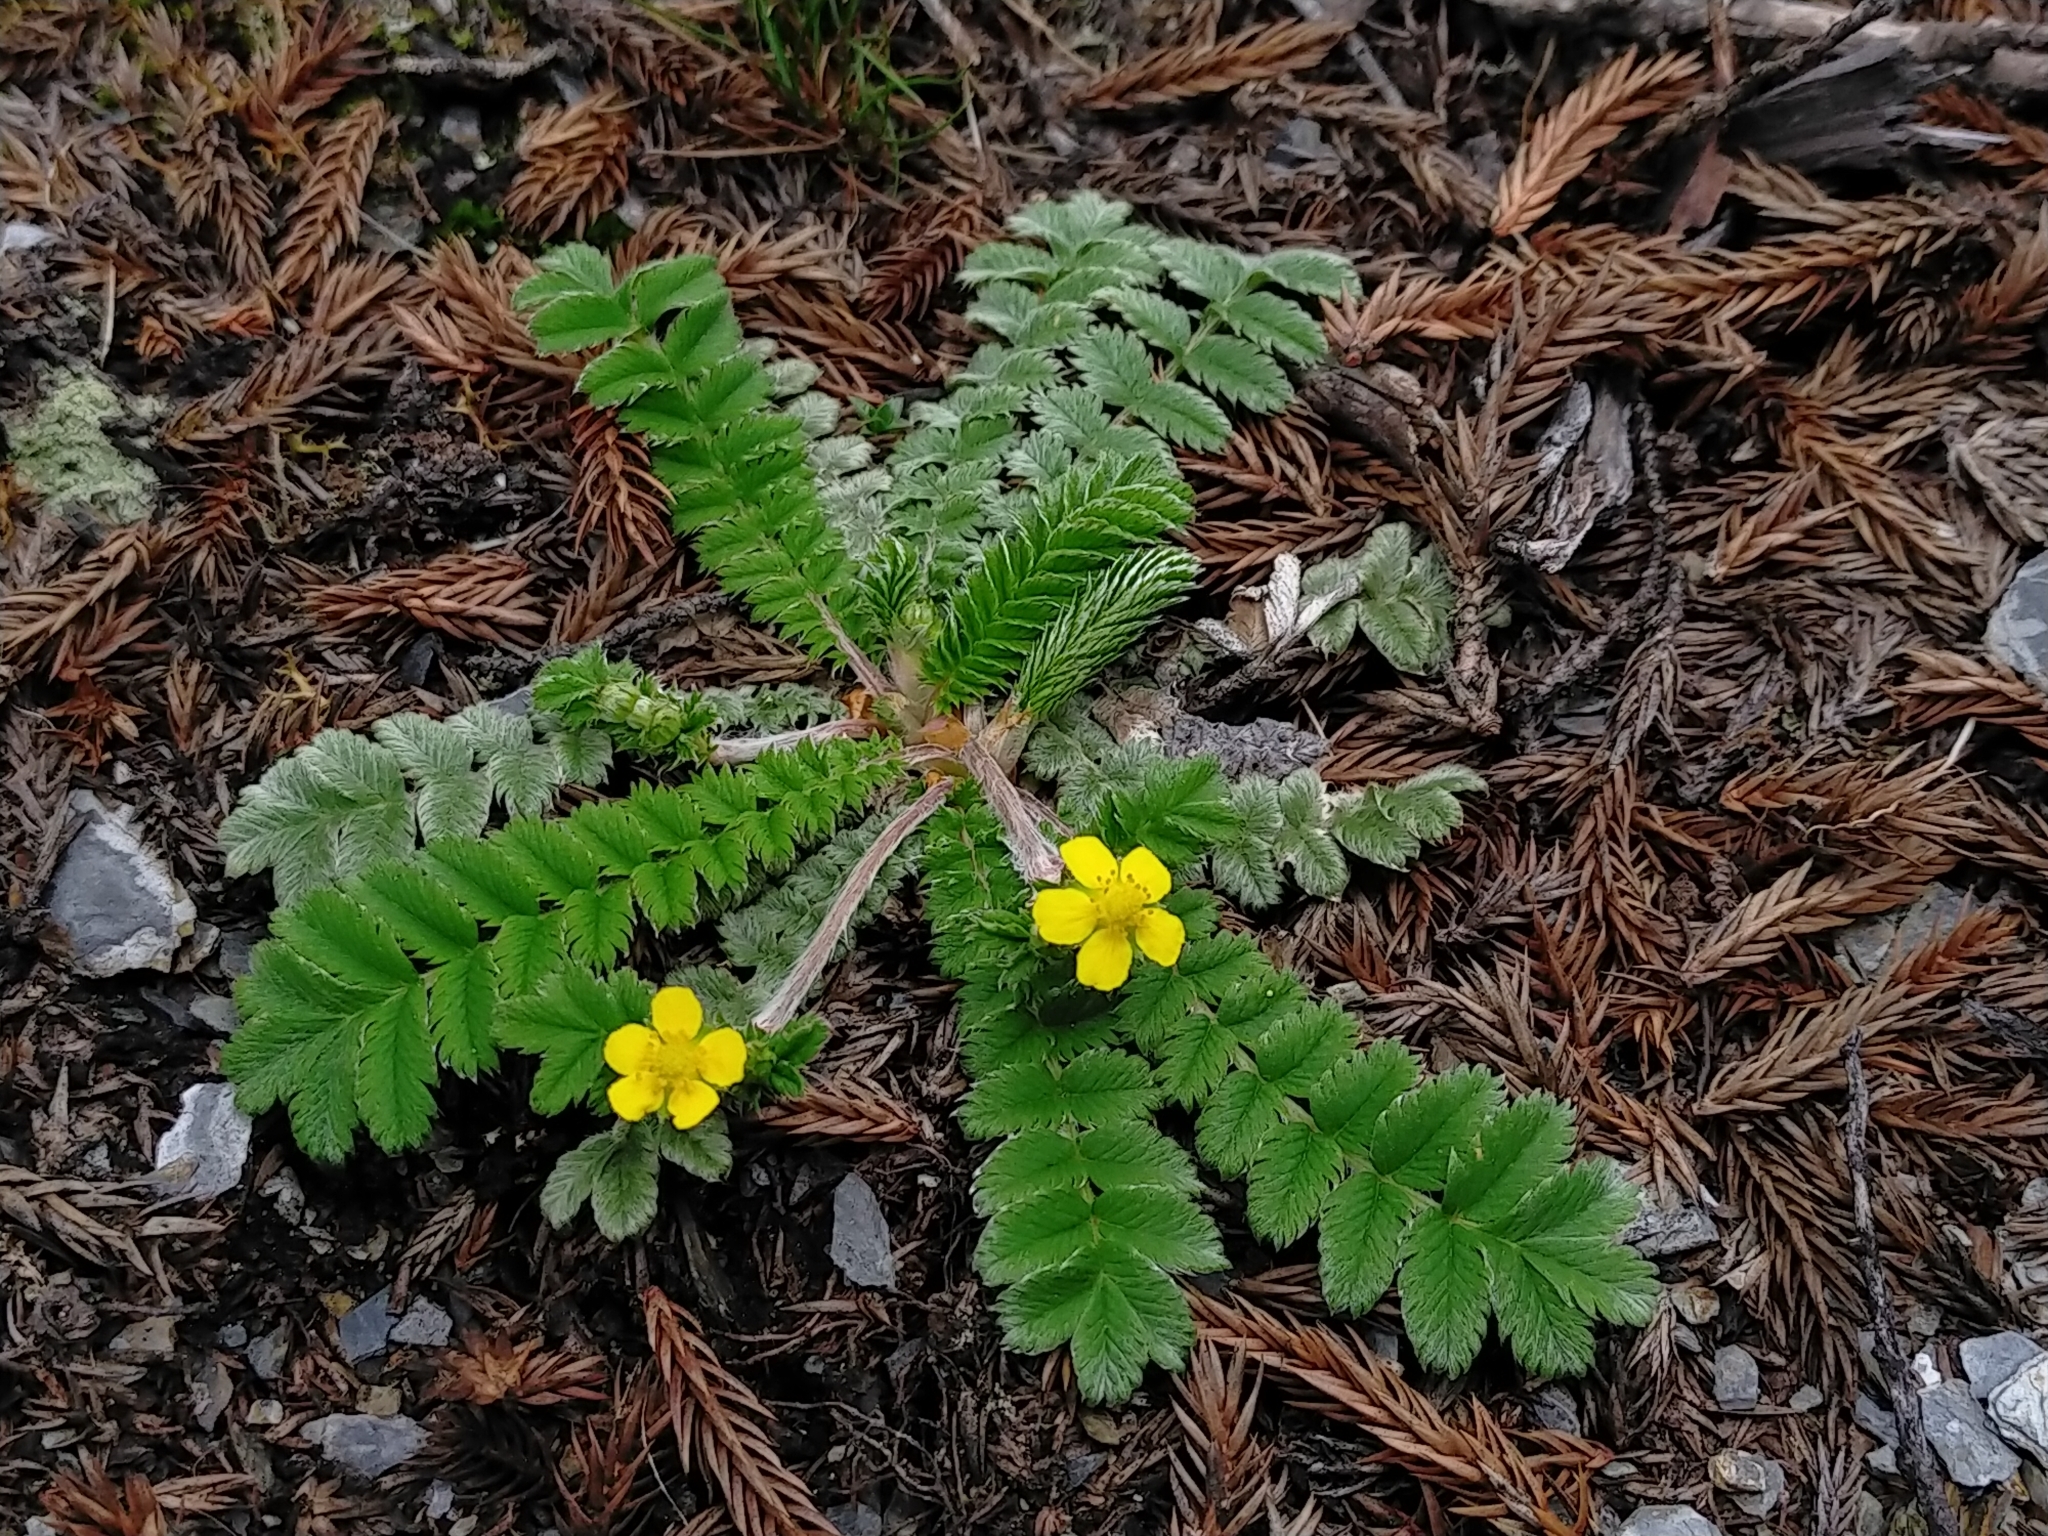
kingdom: Plantae
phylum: Tracheophyta
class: Magnoliopsida
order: Rosales
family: Rosaceae
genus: Argentina
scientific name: Argentina leuconota
